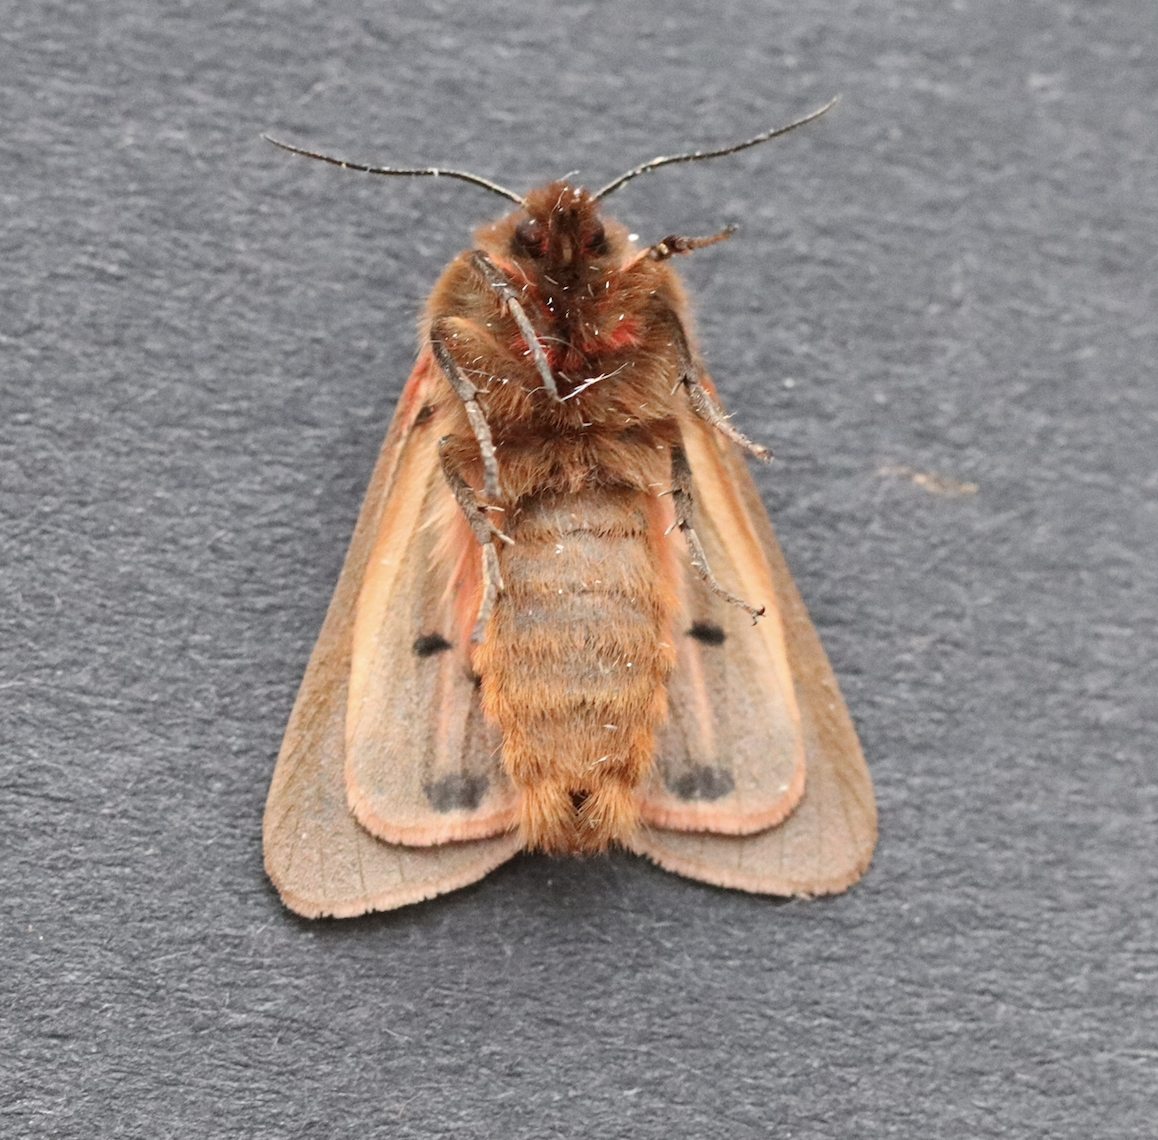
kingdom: Animalia
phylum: Arthropoda
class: Insecta
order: Lepidoptera
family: Erebidae
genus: Phragmatobia
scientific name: Phragmatobia fuliginosa
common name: Ruby tiger
